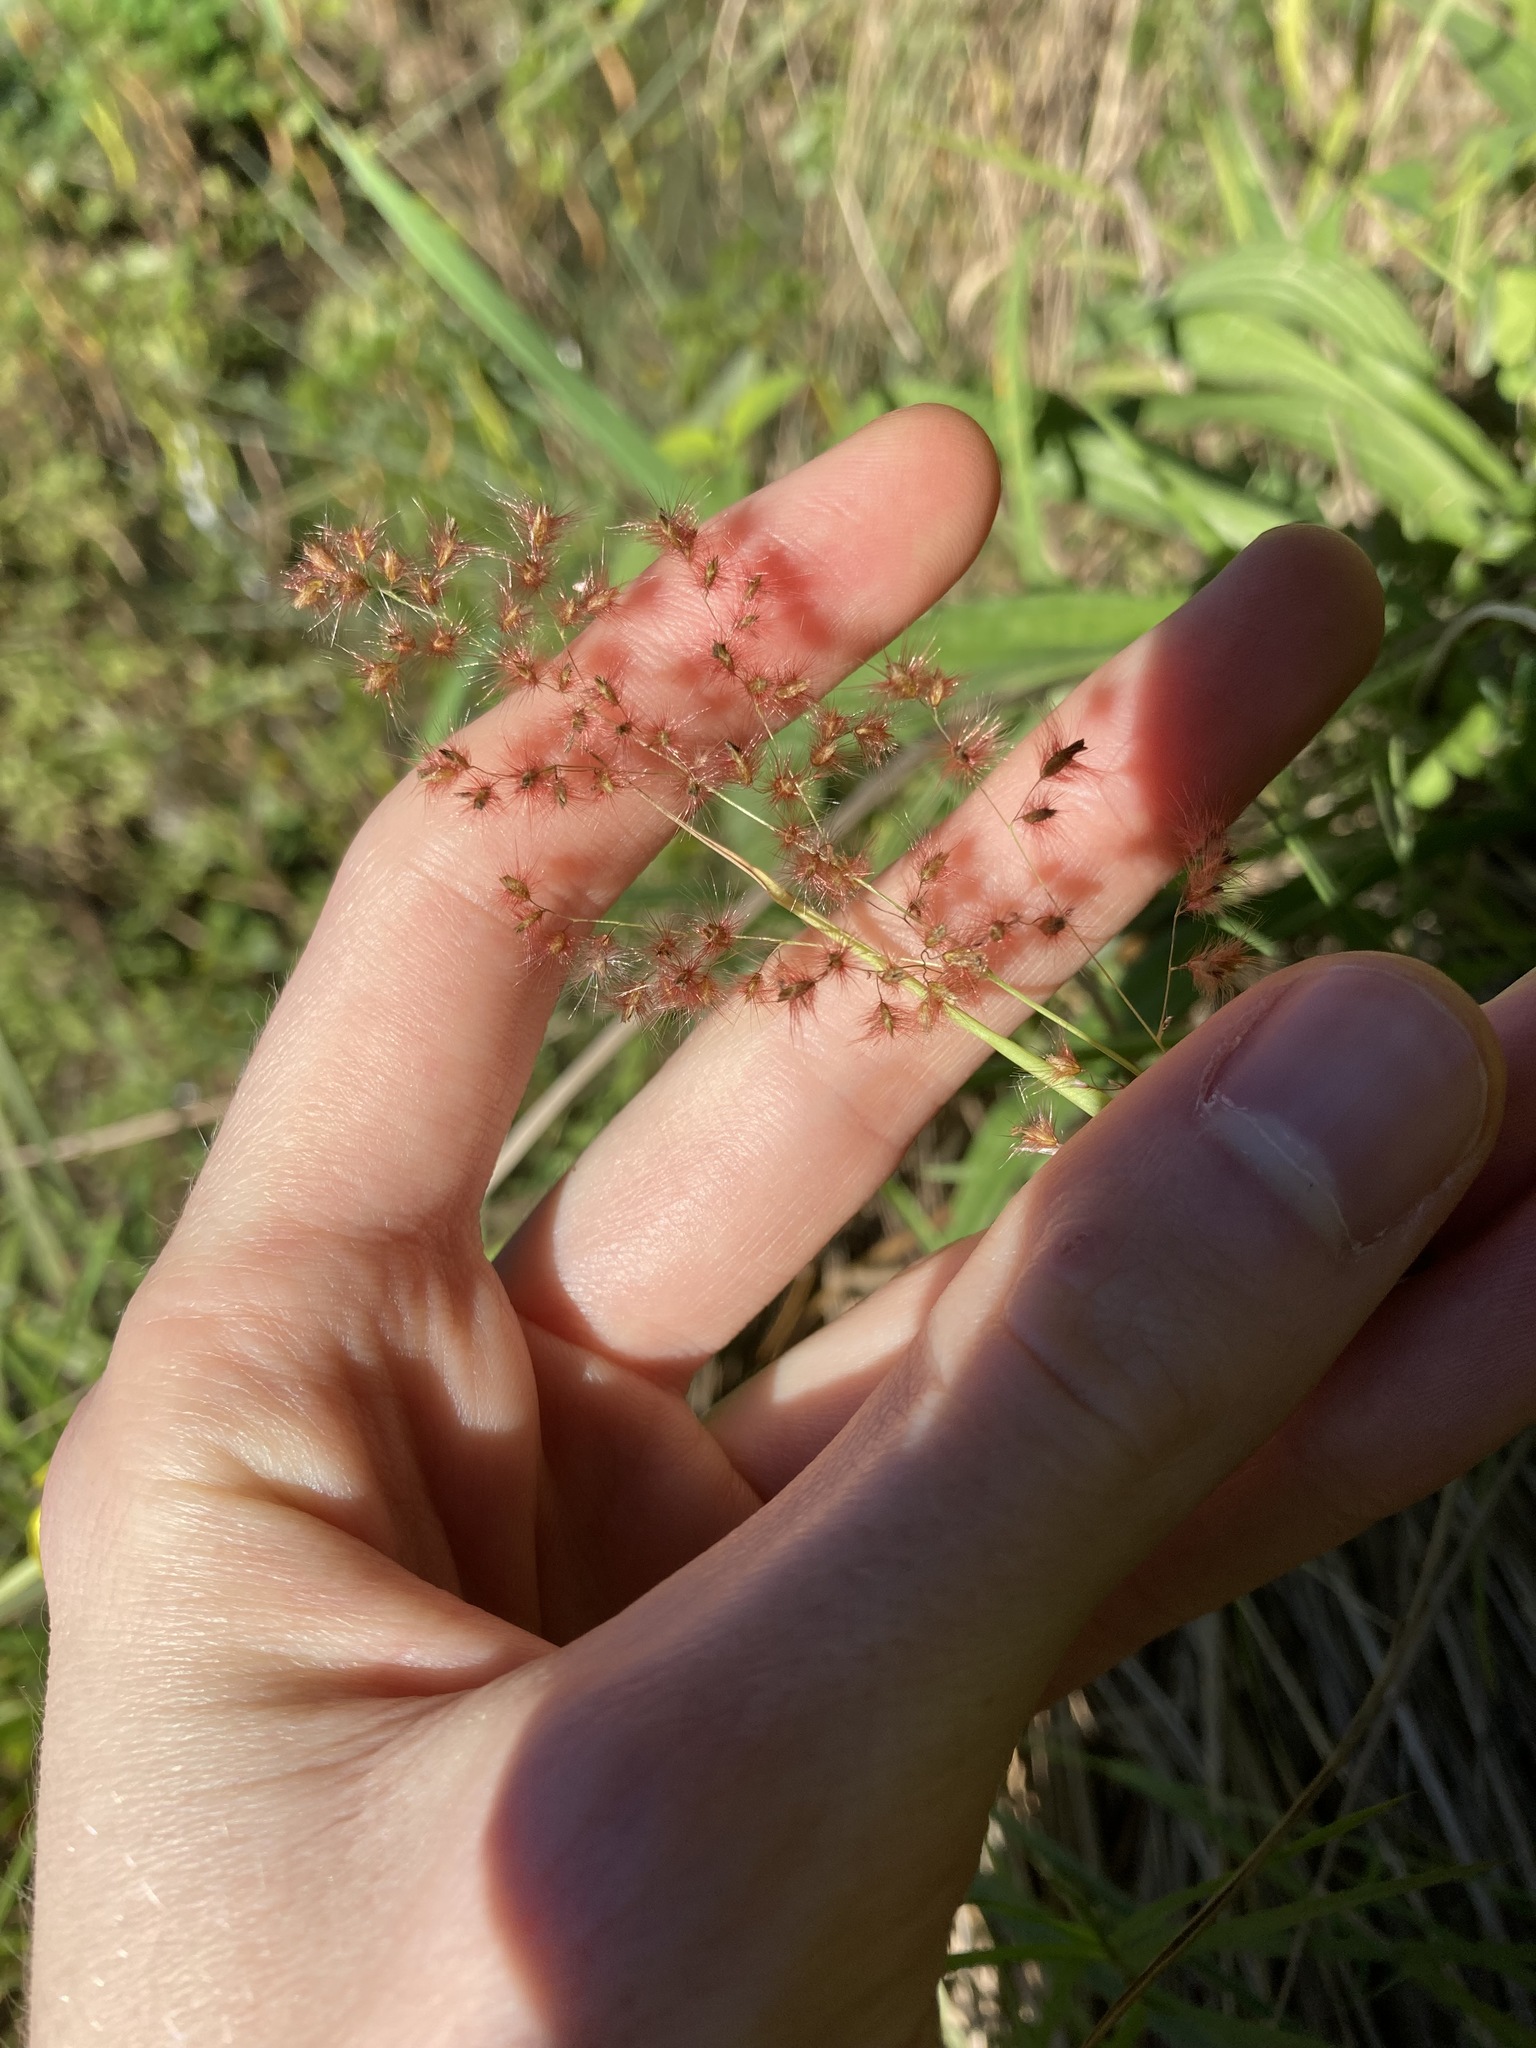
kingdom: Plantae
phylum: Tracheophyta
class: Liliopsida
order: Poales
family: Poaceae
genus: Melinis
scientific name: Melinis repens
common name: Rose natal grass
